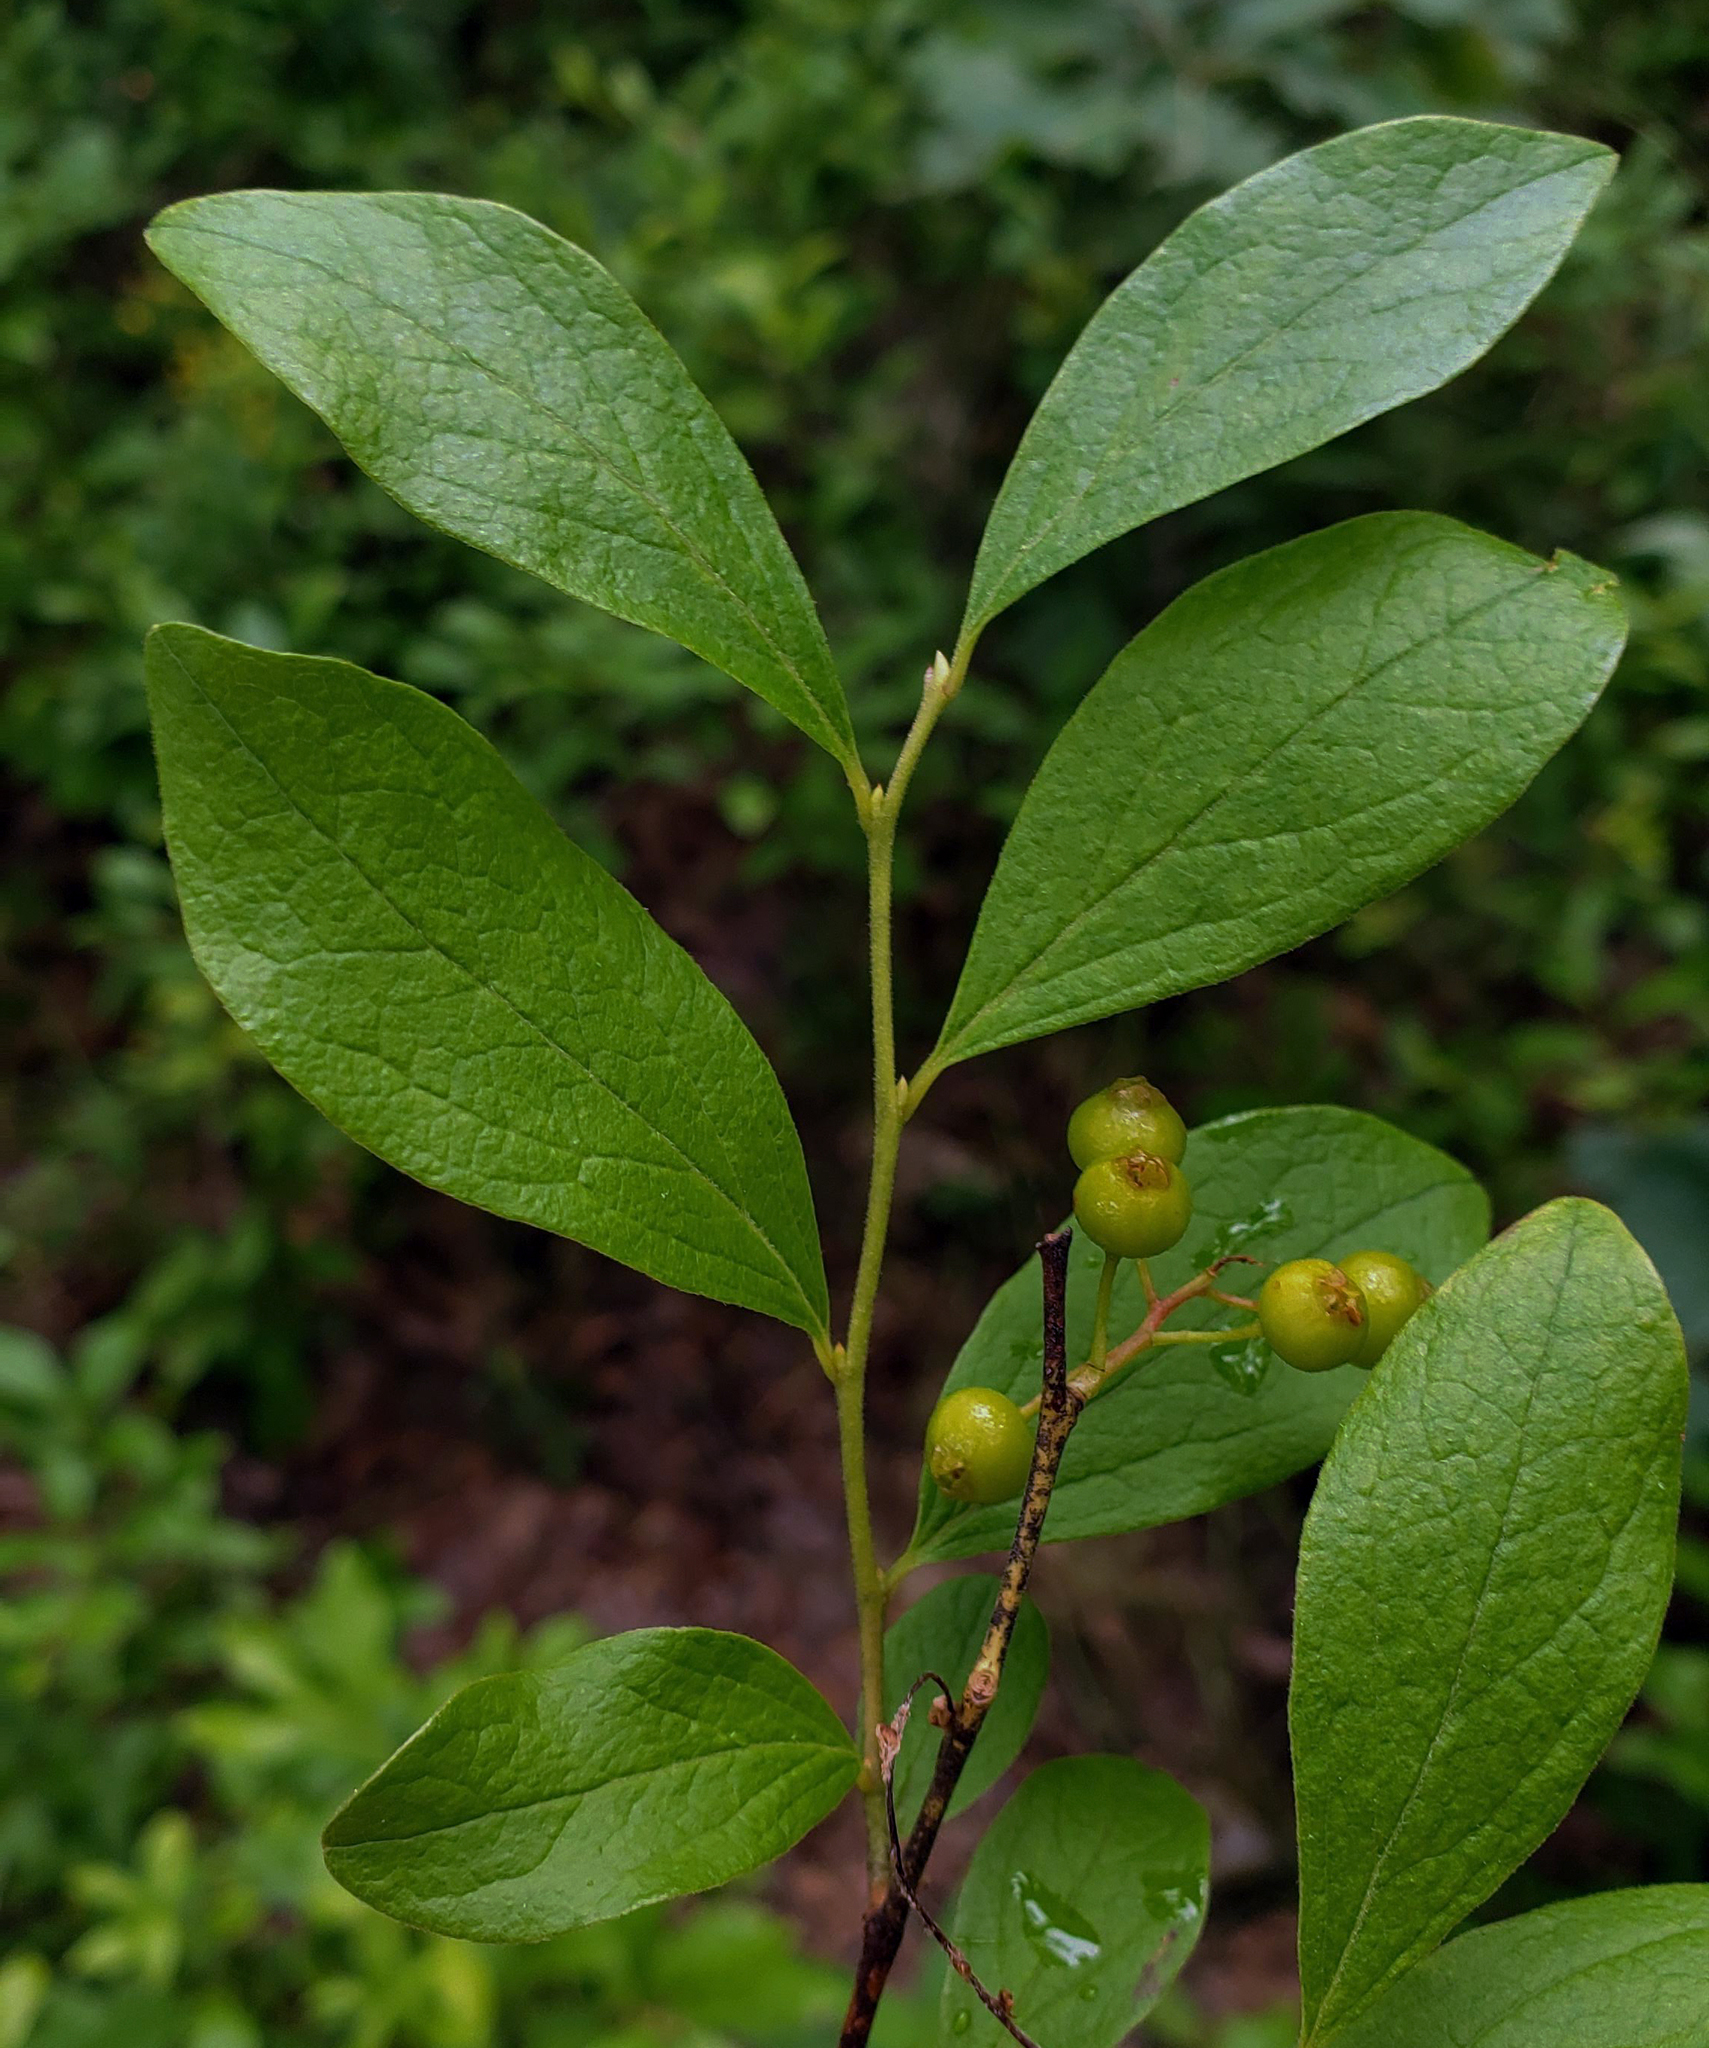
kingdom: Plantae
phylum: Tracheophyta
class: Magnoliopsida
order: Ericales
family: Ericaceae
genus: Gaylussacia
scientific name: Gaylussacia baccata
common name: Black huckleberry
